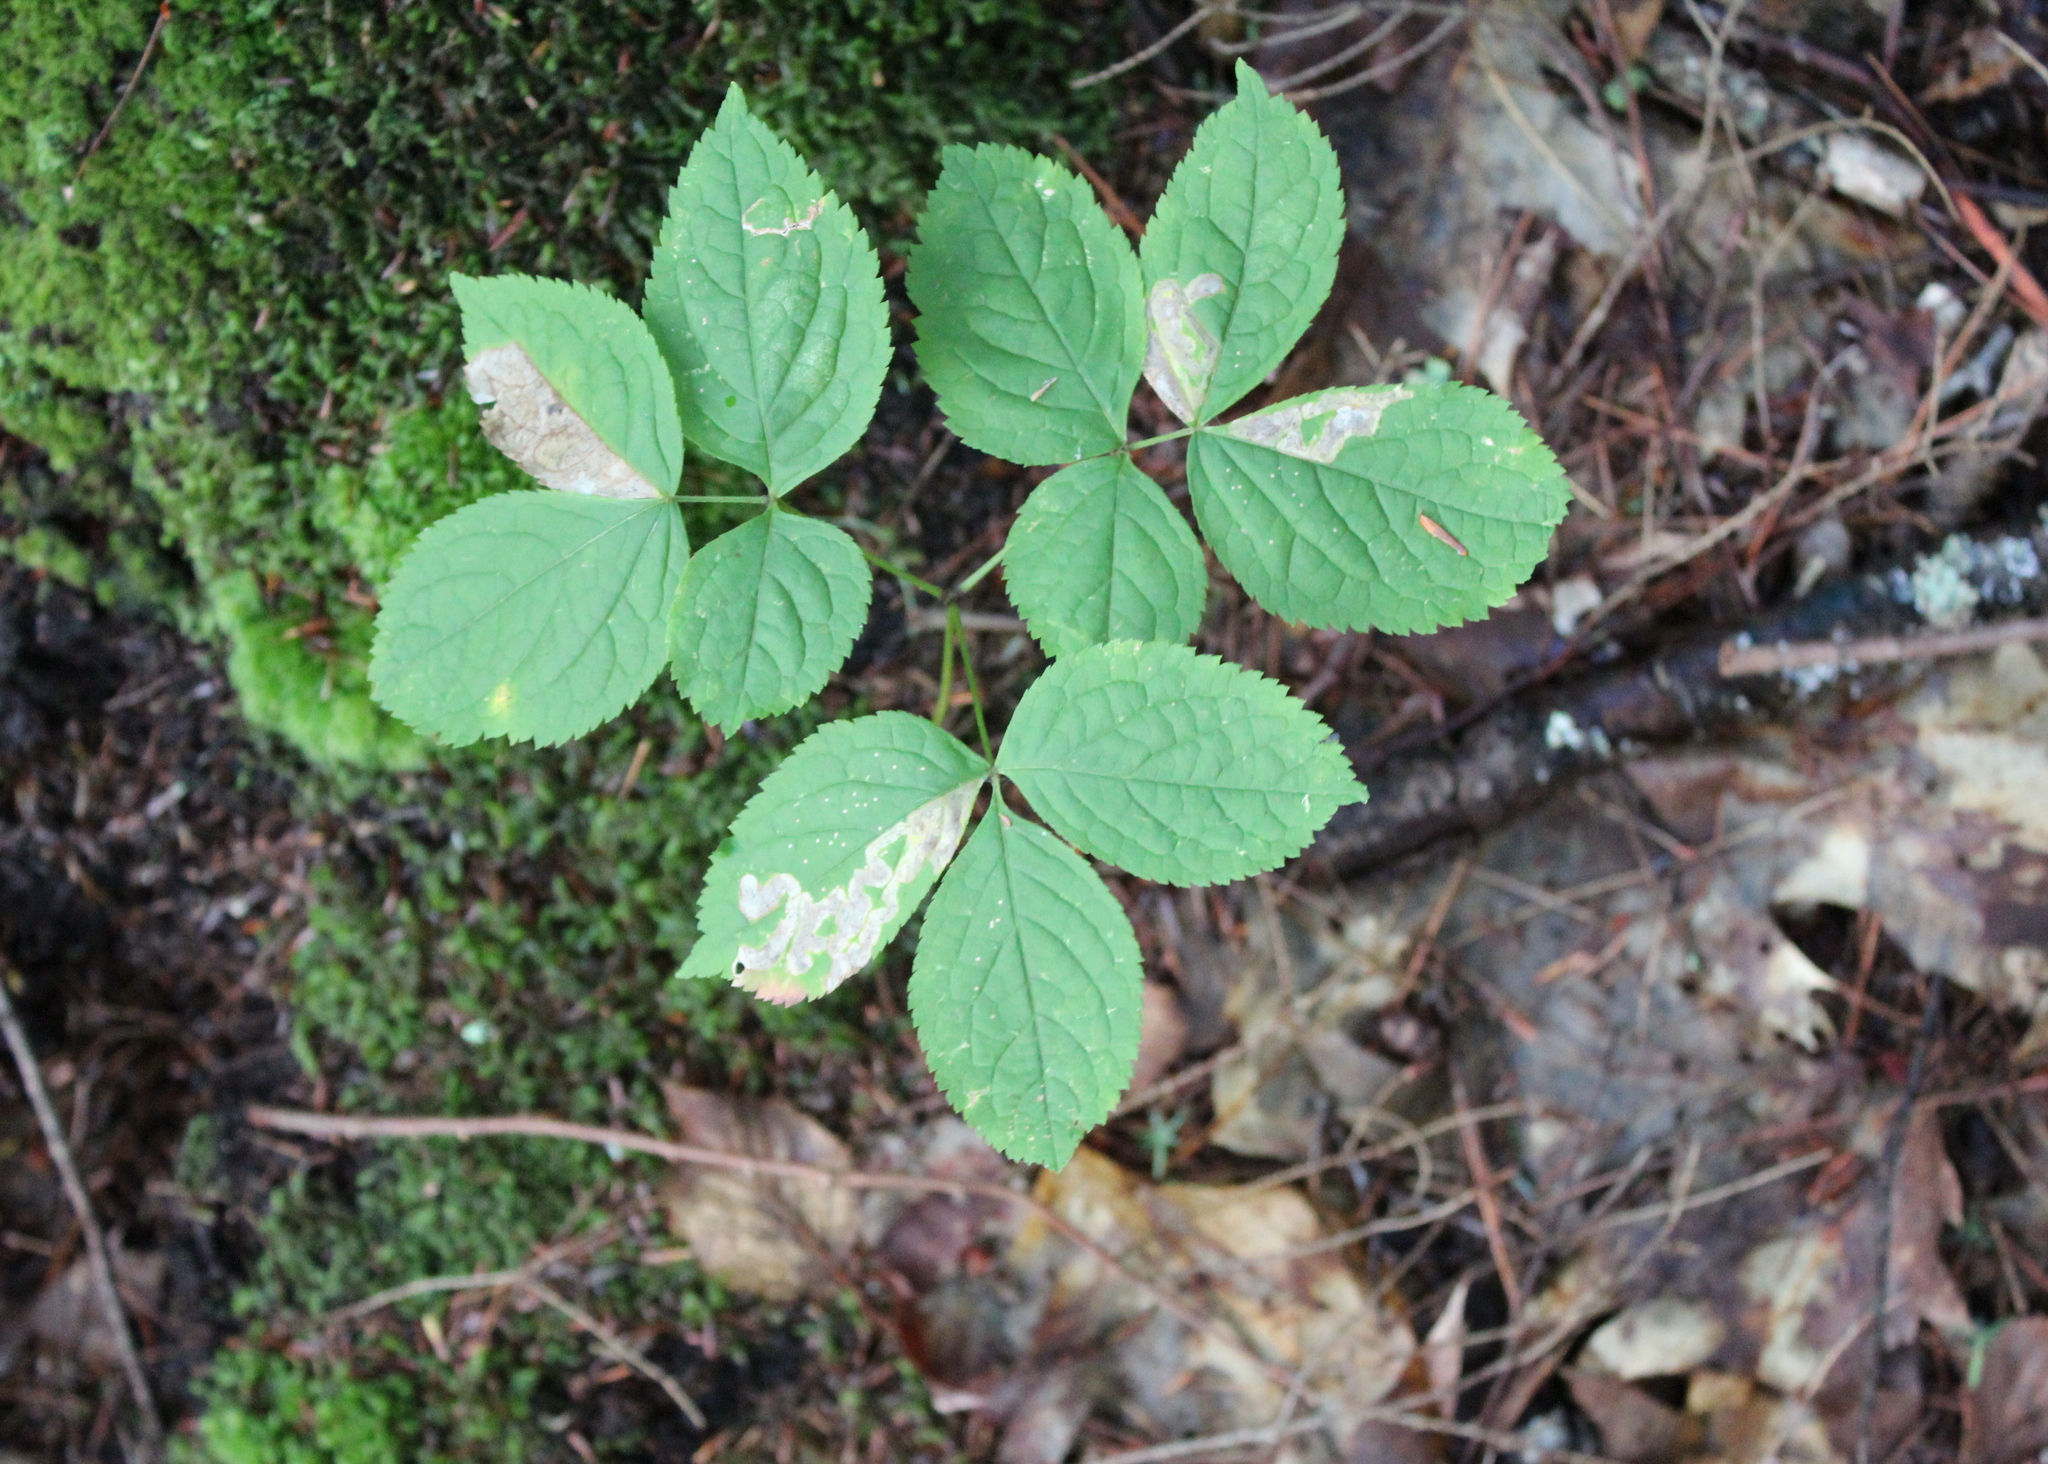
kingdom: Plantae
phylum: Tracheophyta
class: Magnoliopsida
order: Apiales
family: Araliaceae
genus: Aralia
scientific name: Aralia nudicaulis
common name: Wild sarsaparilla
